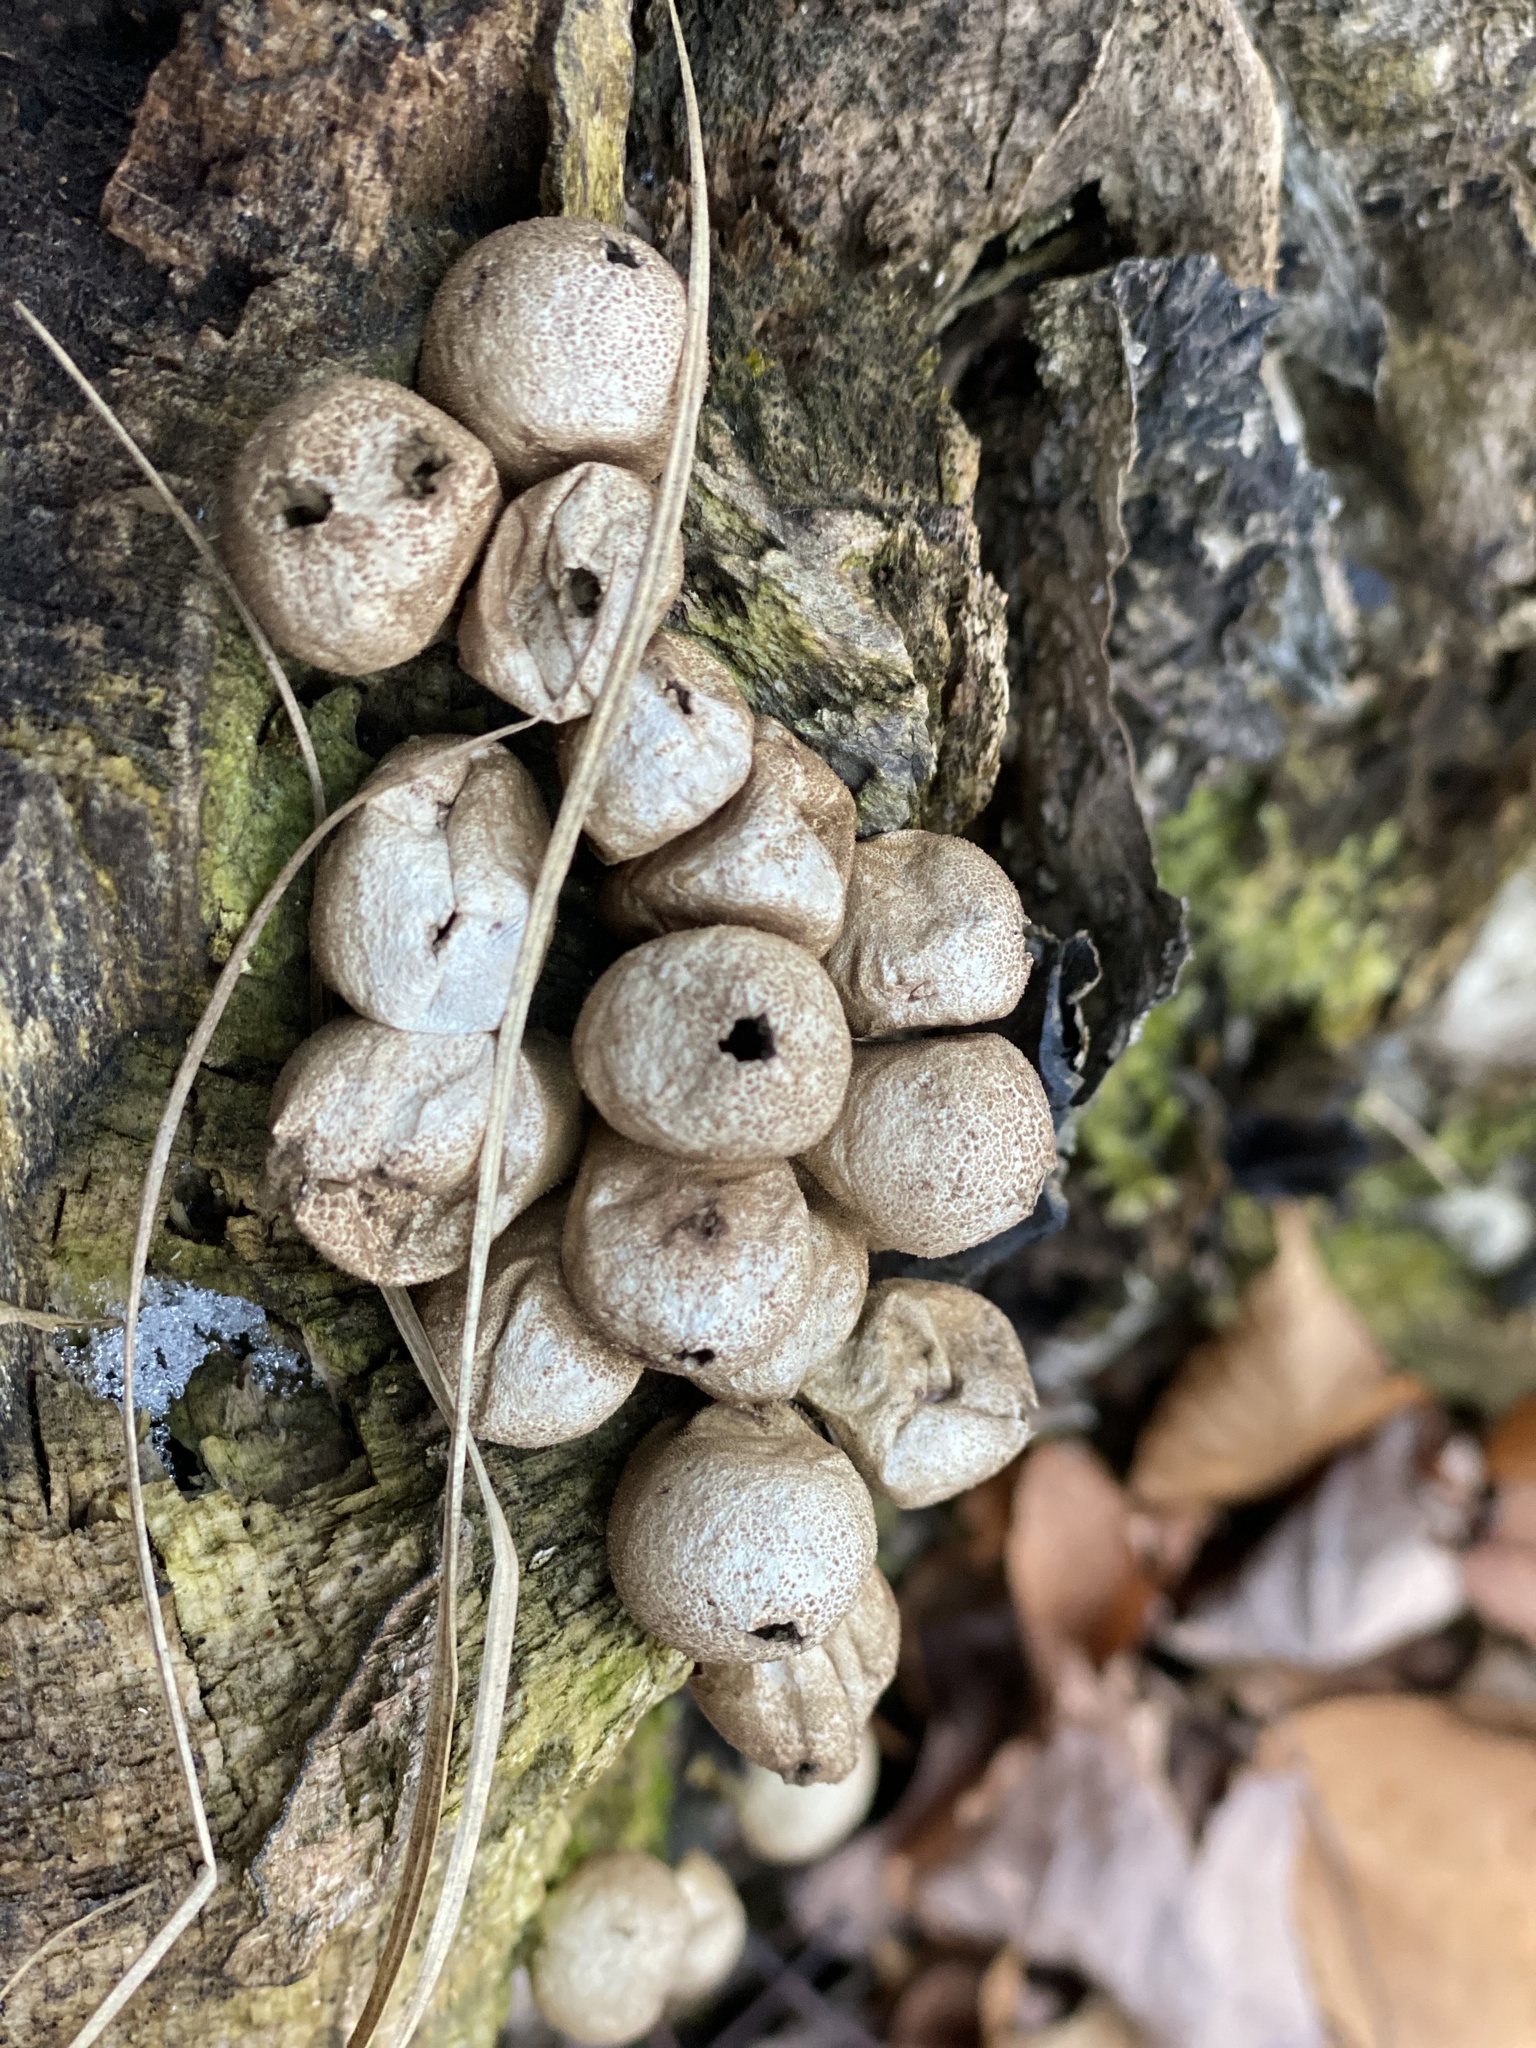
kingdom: Fungi
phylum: Basidiomycota
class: Agaricomycetes
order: Agaricales
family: Lycoperdaceae
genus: Apioperdon
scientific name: Apioperdon pyriforme
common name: Pear-shaped puffball
